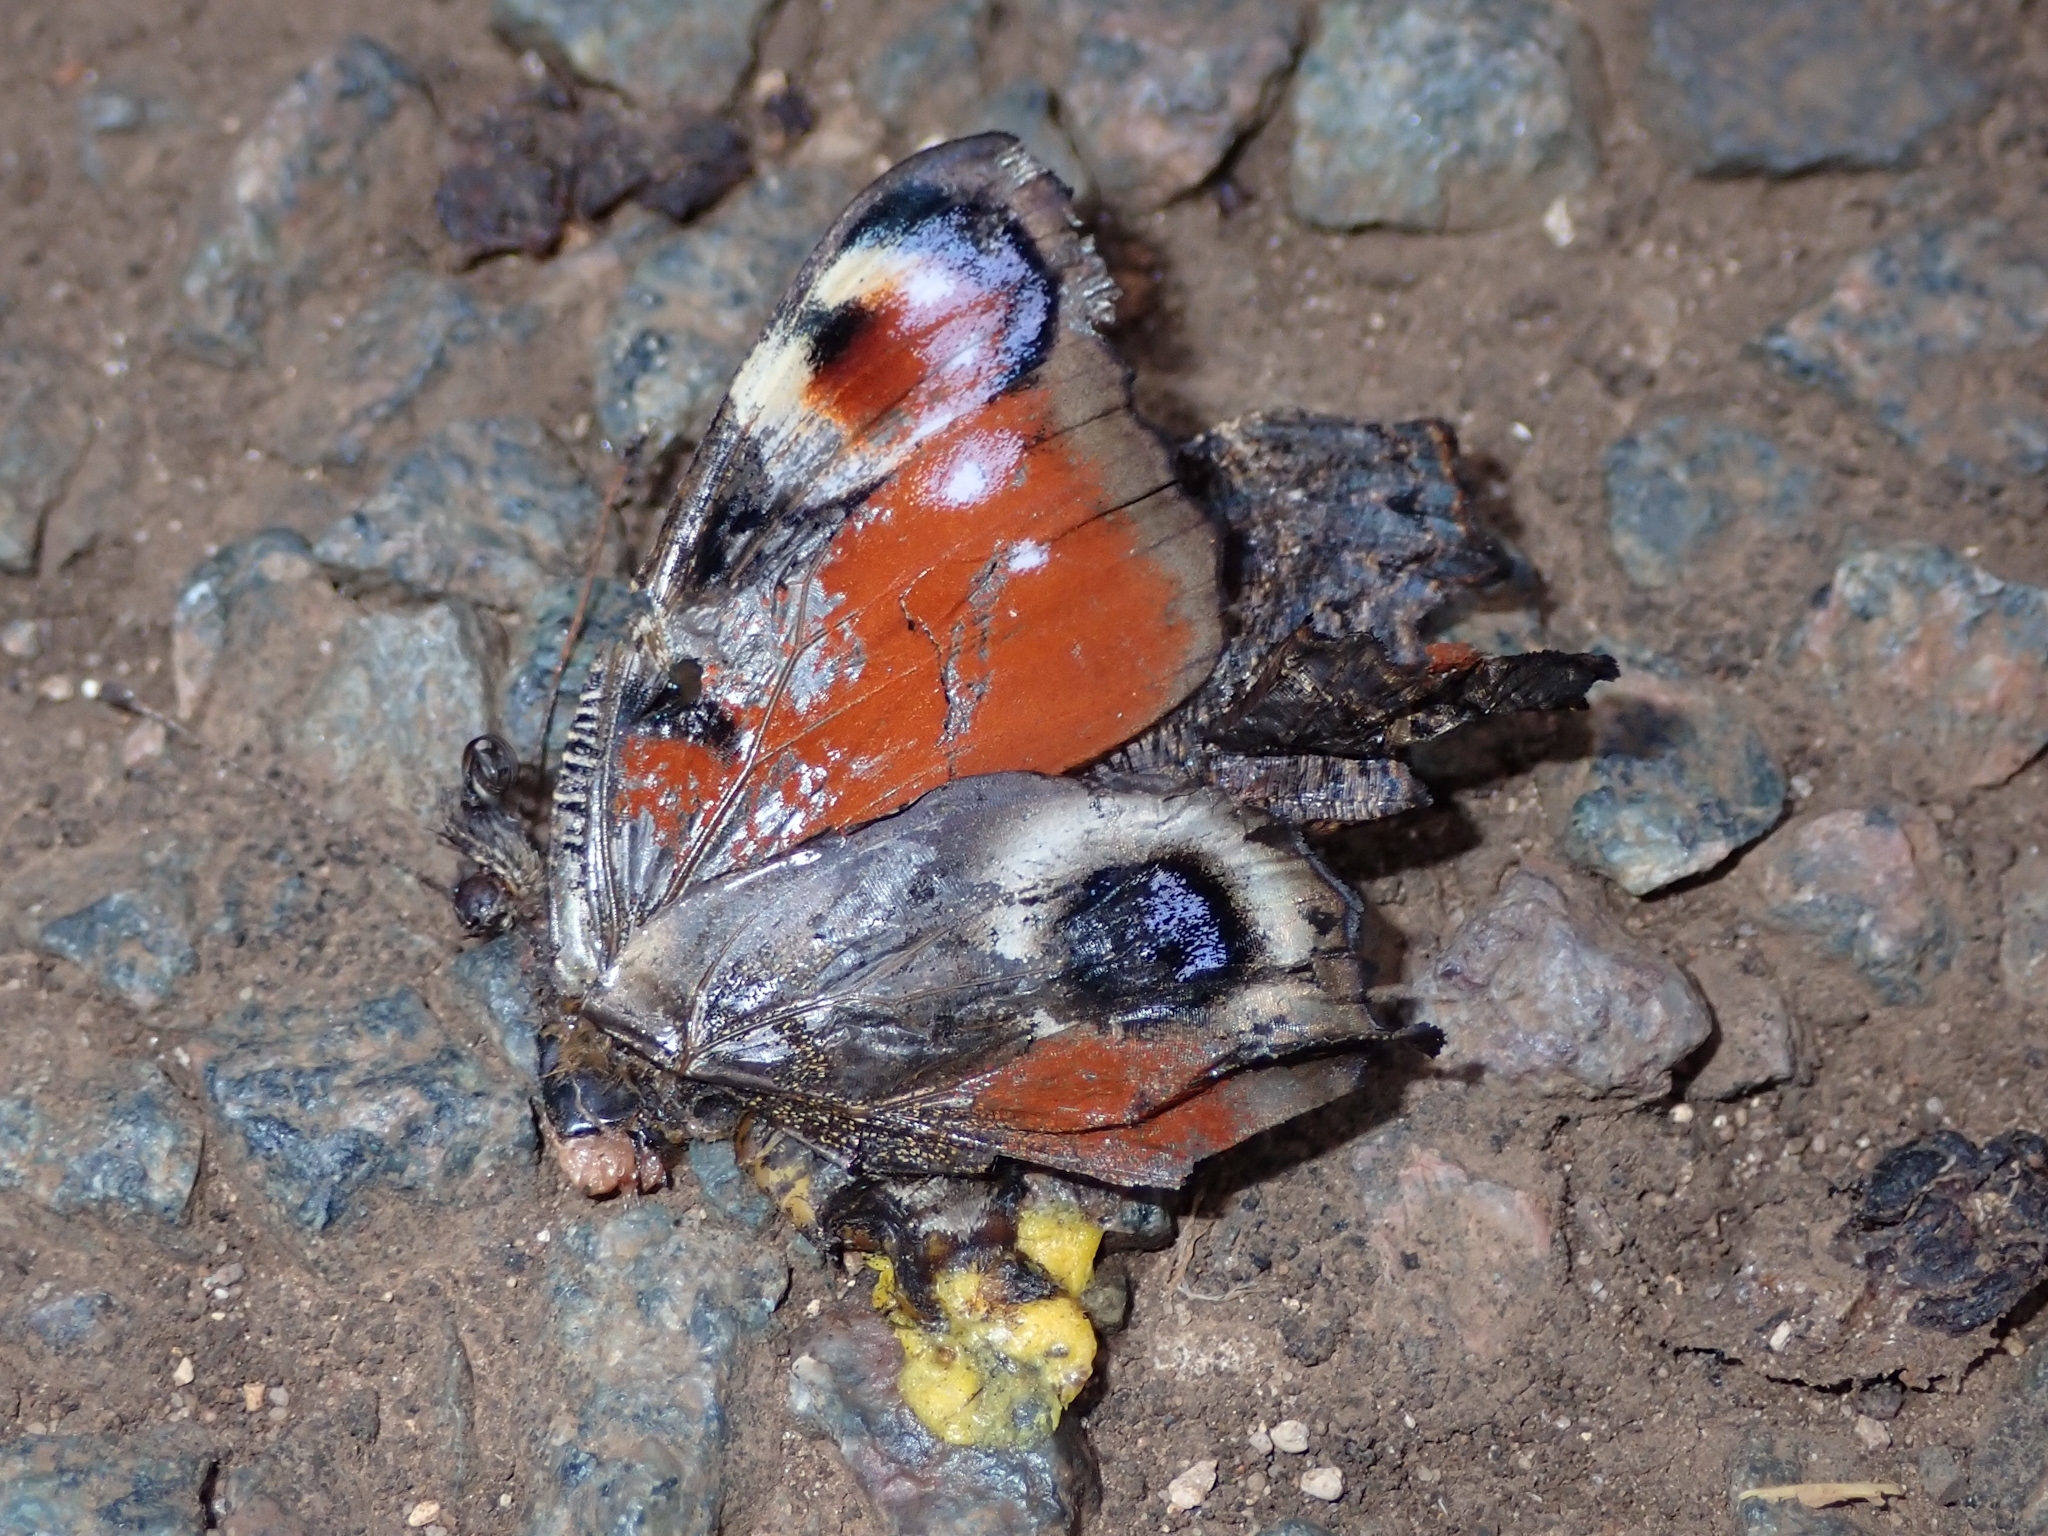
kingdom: Animalia
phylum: Arthropoda
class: Insecta
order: Lepidoptera
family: Nymphalidae
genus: Aglais
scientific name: Aglais io
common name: Peacock
